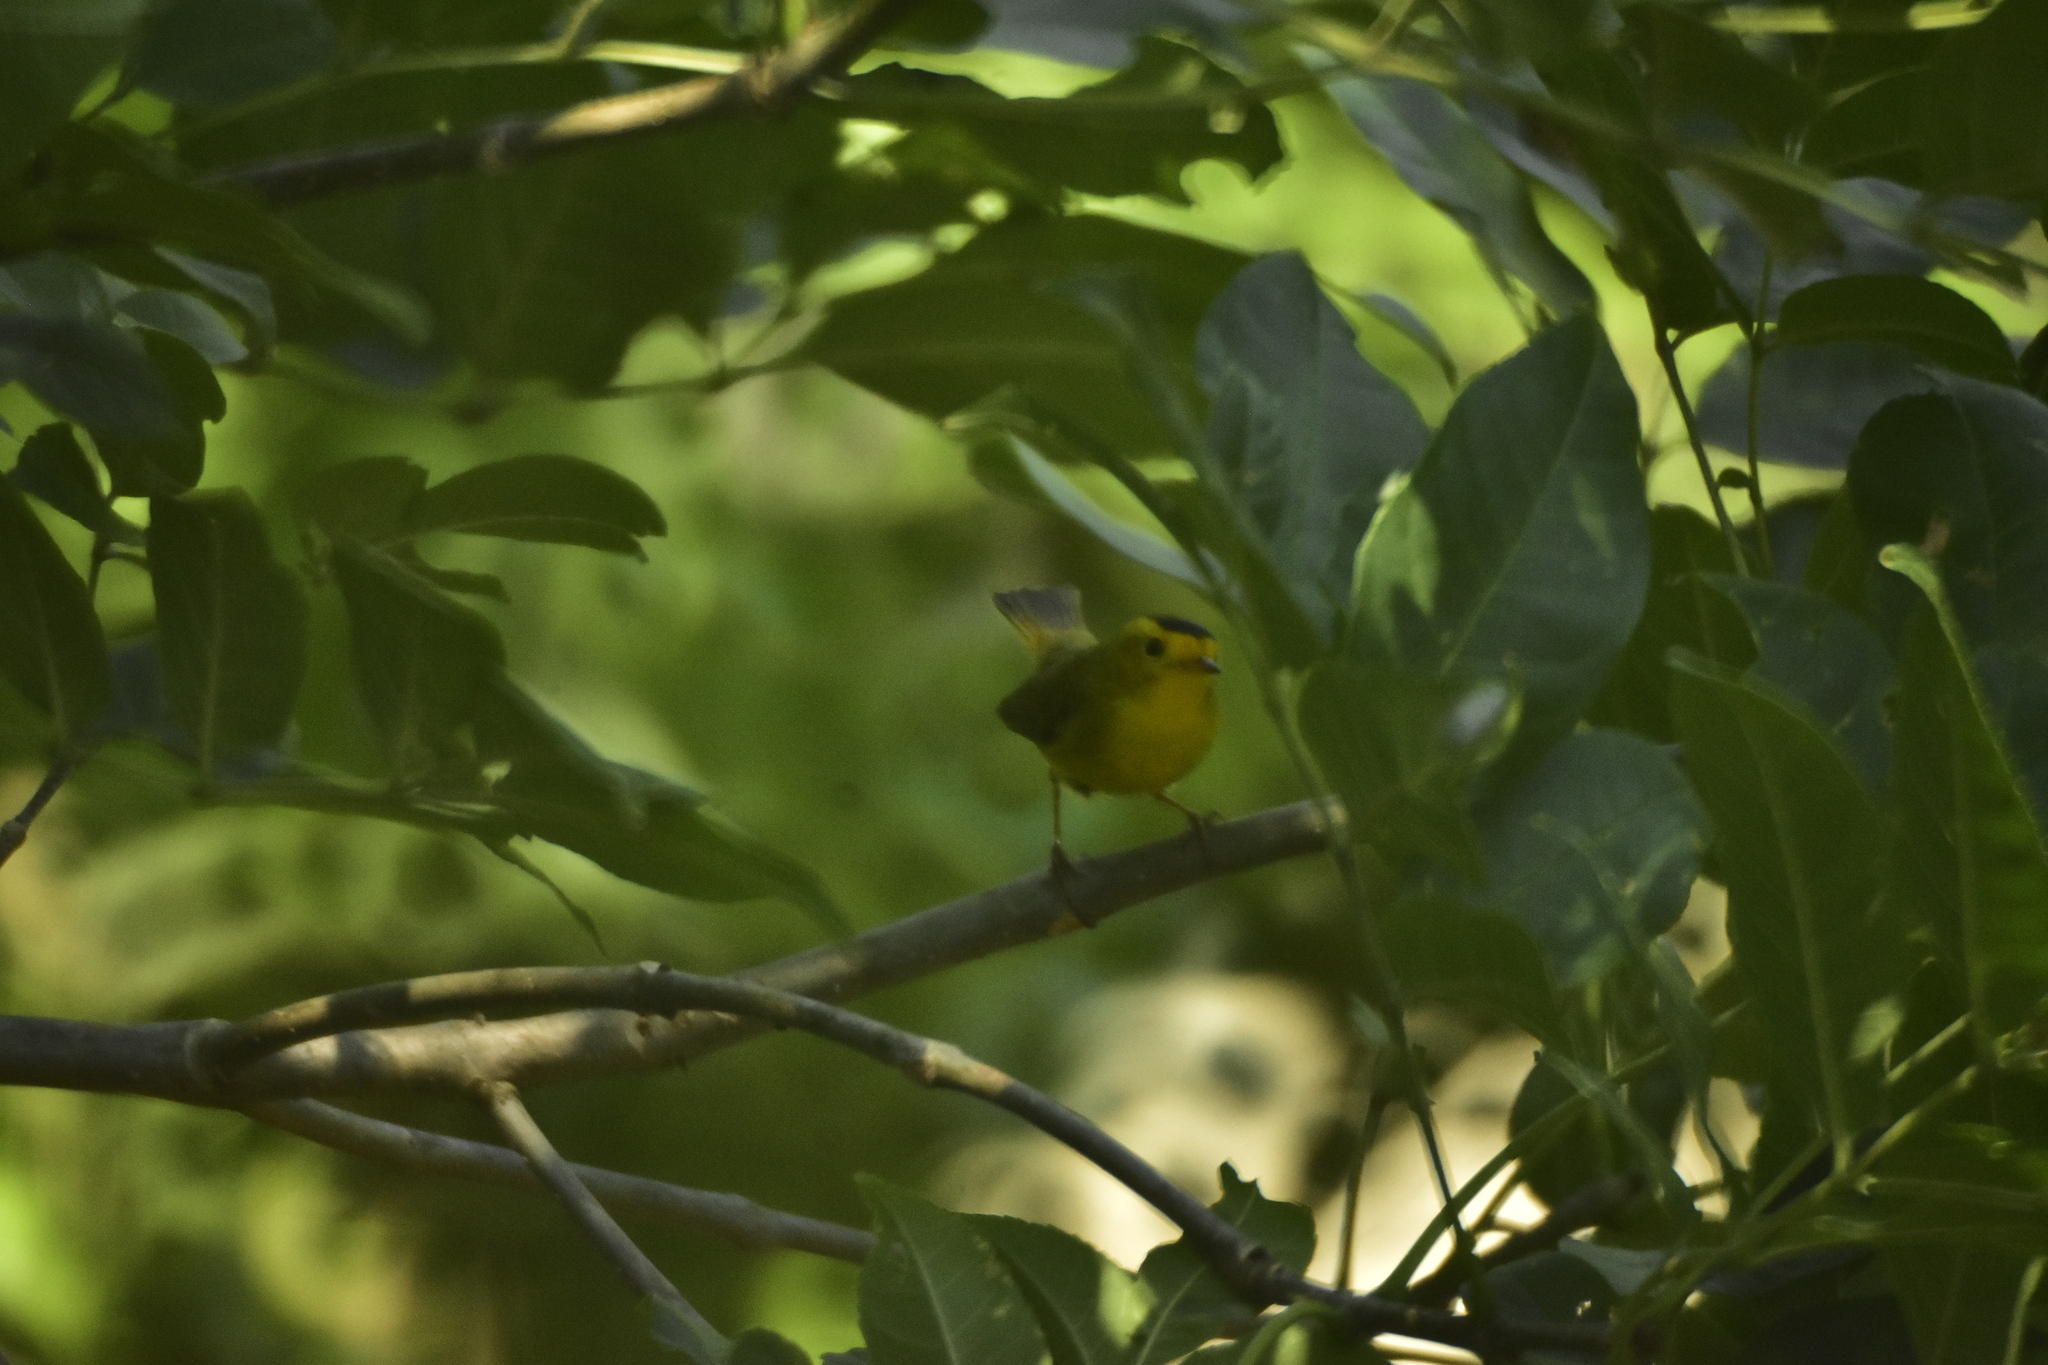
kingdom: Animalia
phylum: Chordata
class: Aves
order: Passeriformes
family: Parulidae
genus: Cardellina
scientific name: Cardellina pusilla
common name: Wilson's warbler
